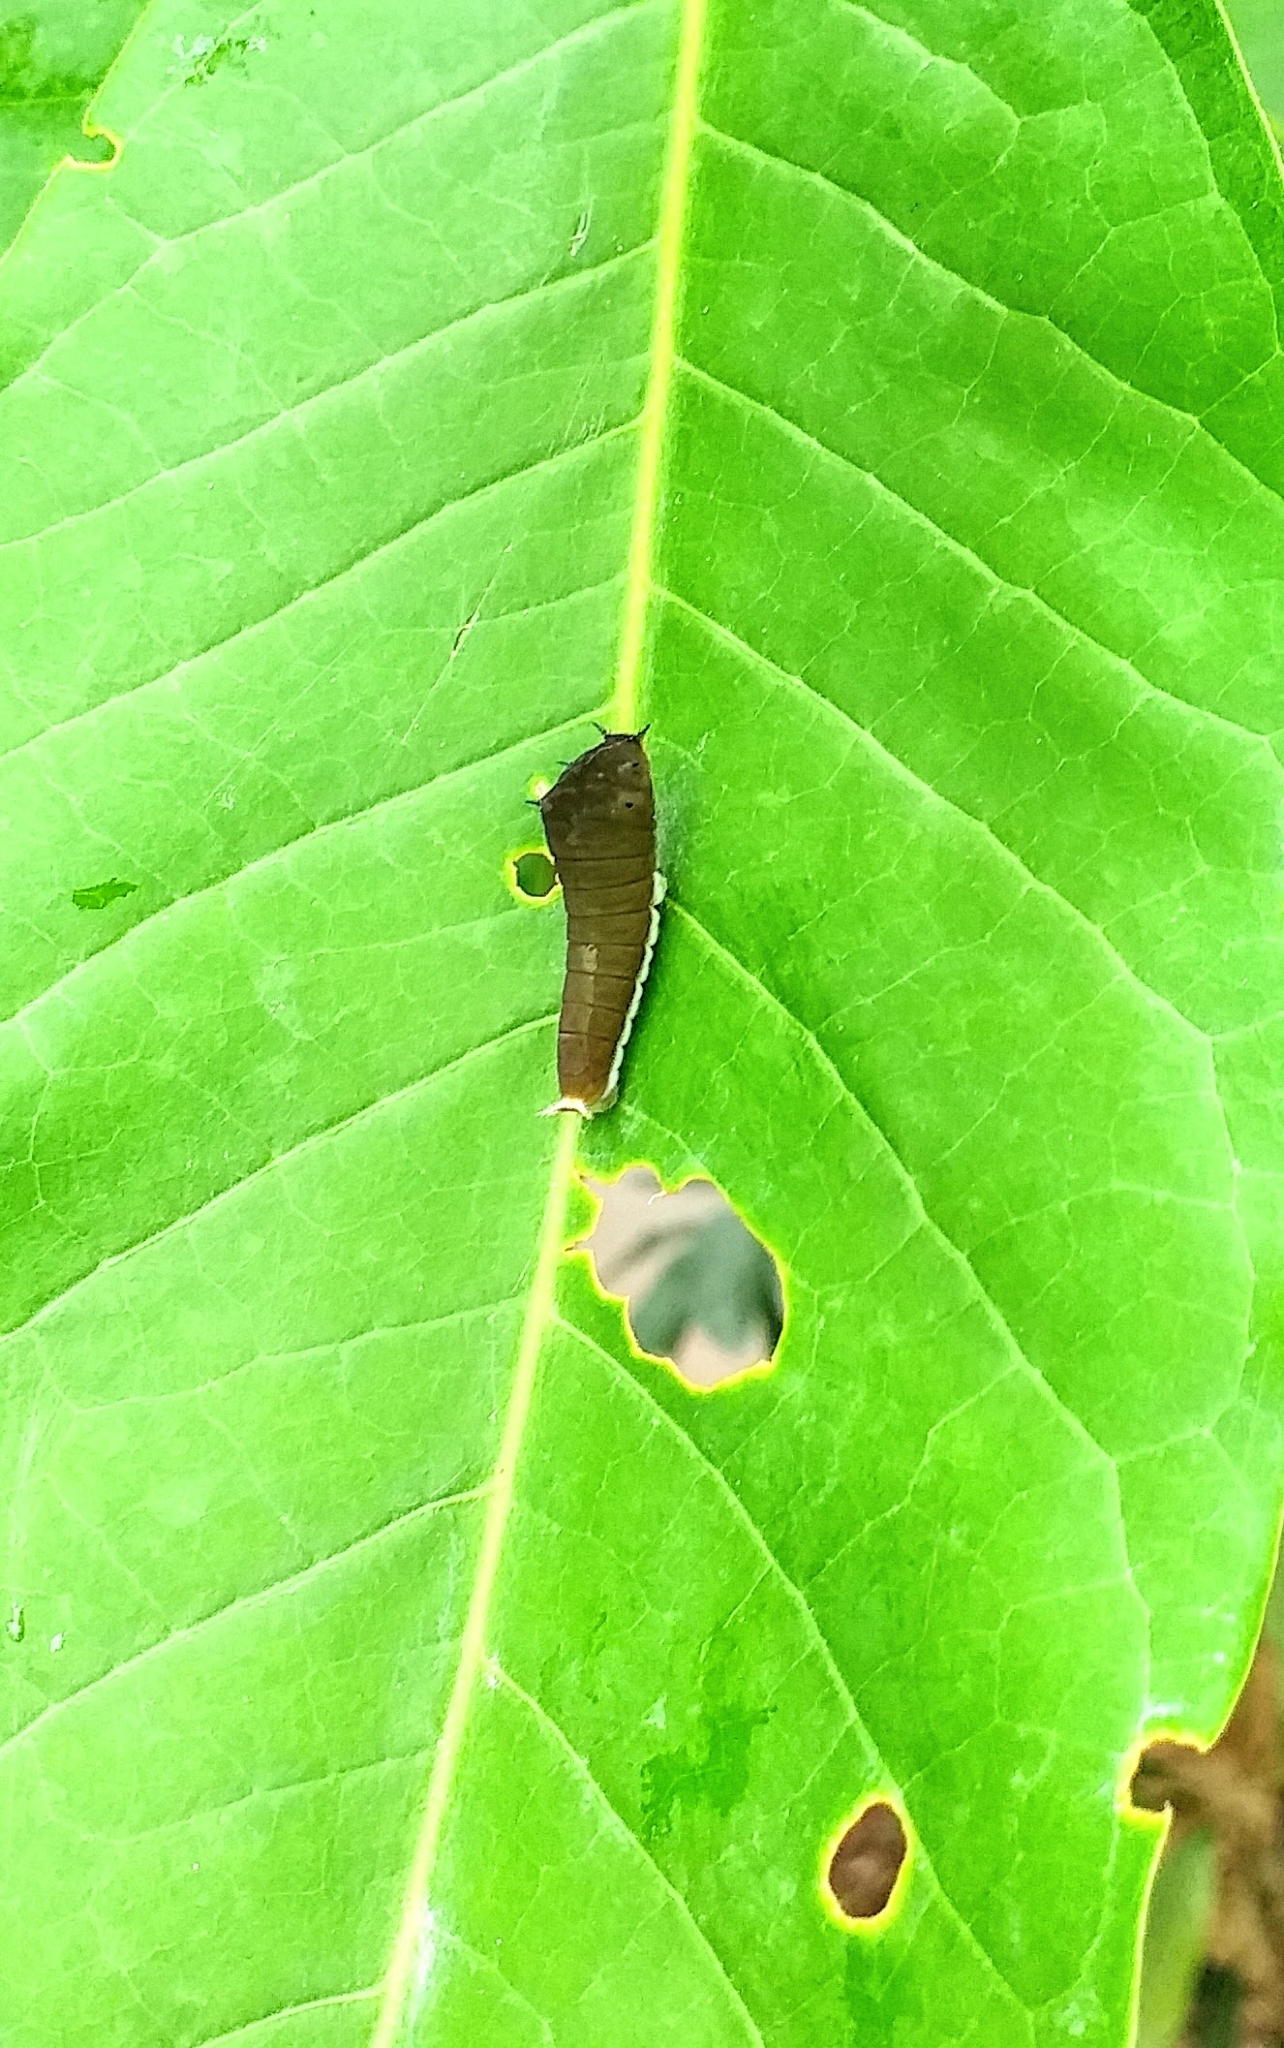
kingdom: Animalia
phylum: Arthropoda
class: Insecta
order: Lepidoptera
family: Papilionidae
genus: Graphium
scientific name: Graphium agamemnon
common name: Tailed jay
